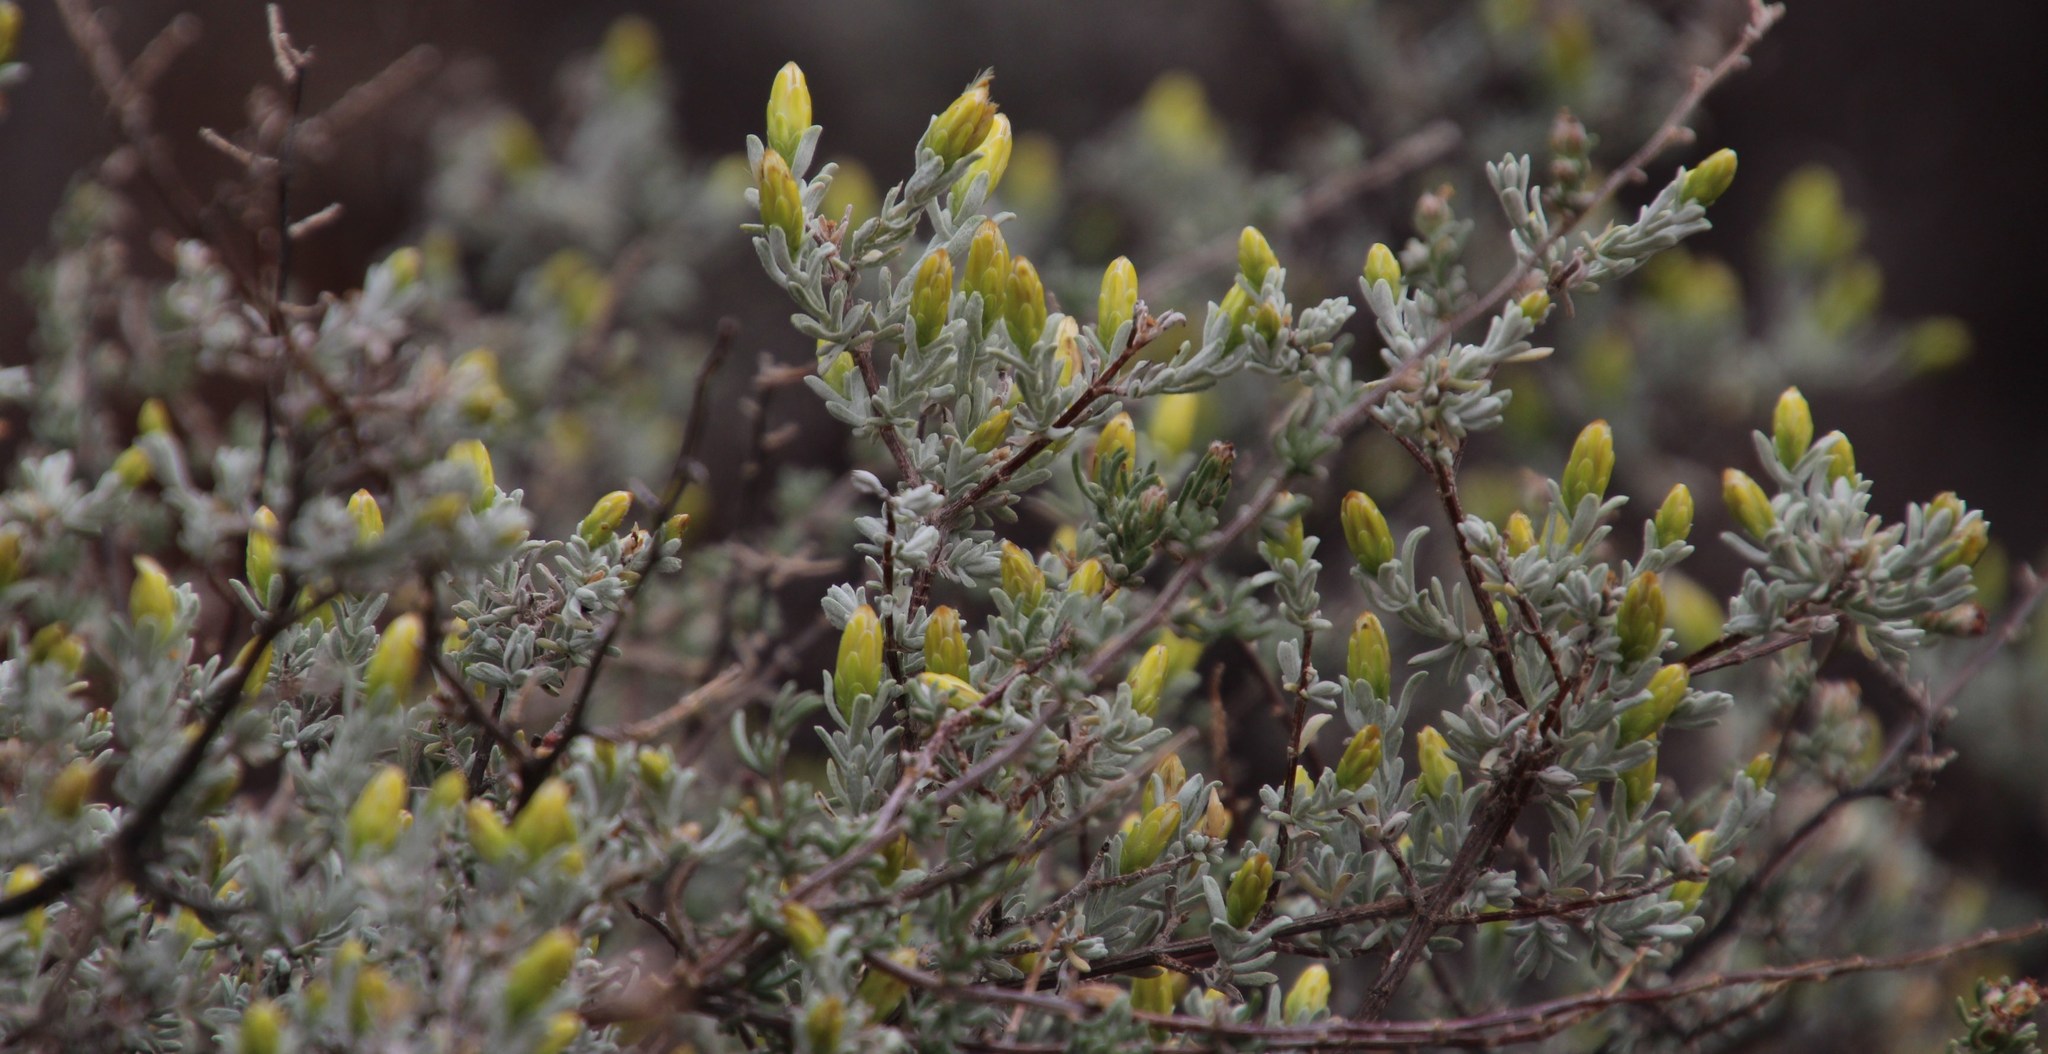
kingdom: Plantae
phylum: Tracheophyta
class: Magnoliopsida
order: Asterales
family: Asteraceae
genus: Pteronia
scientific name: Pteronia incana
